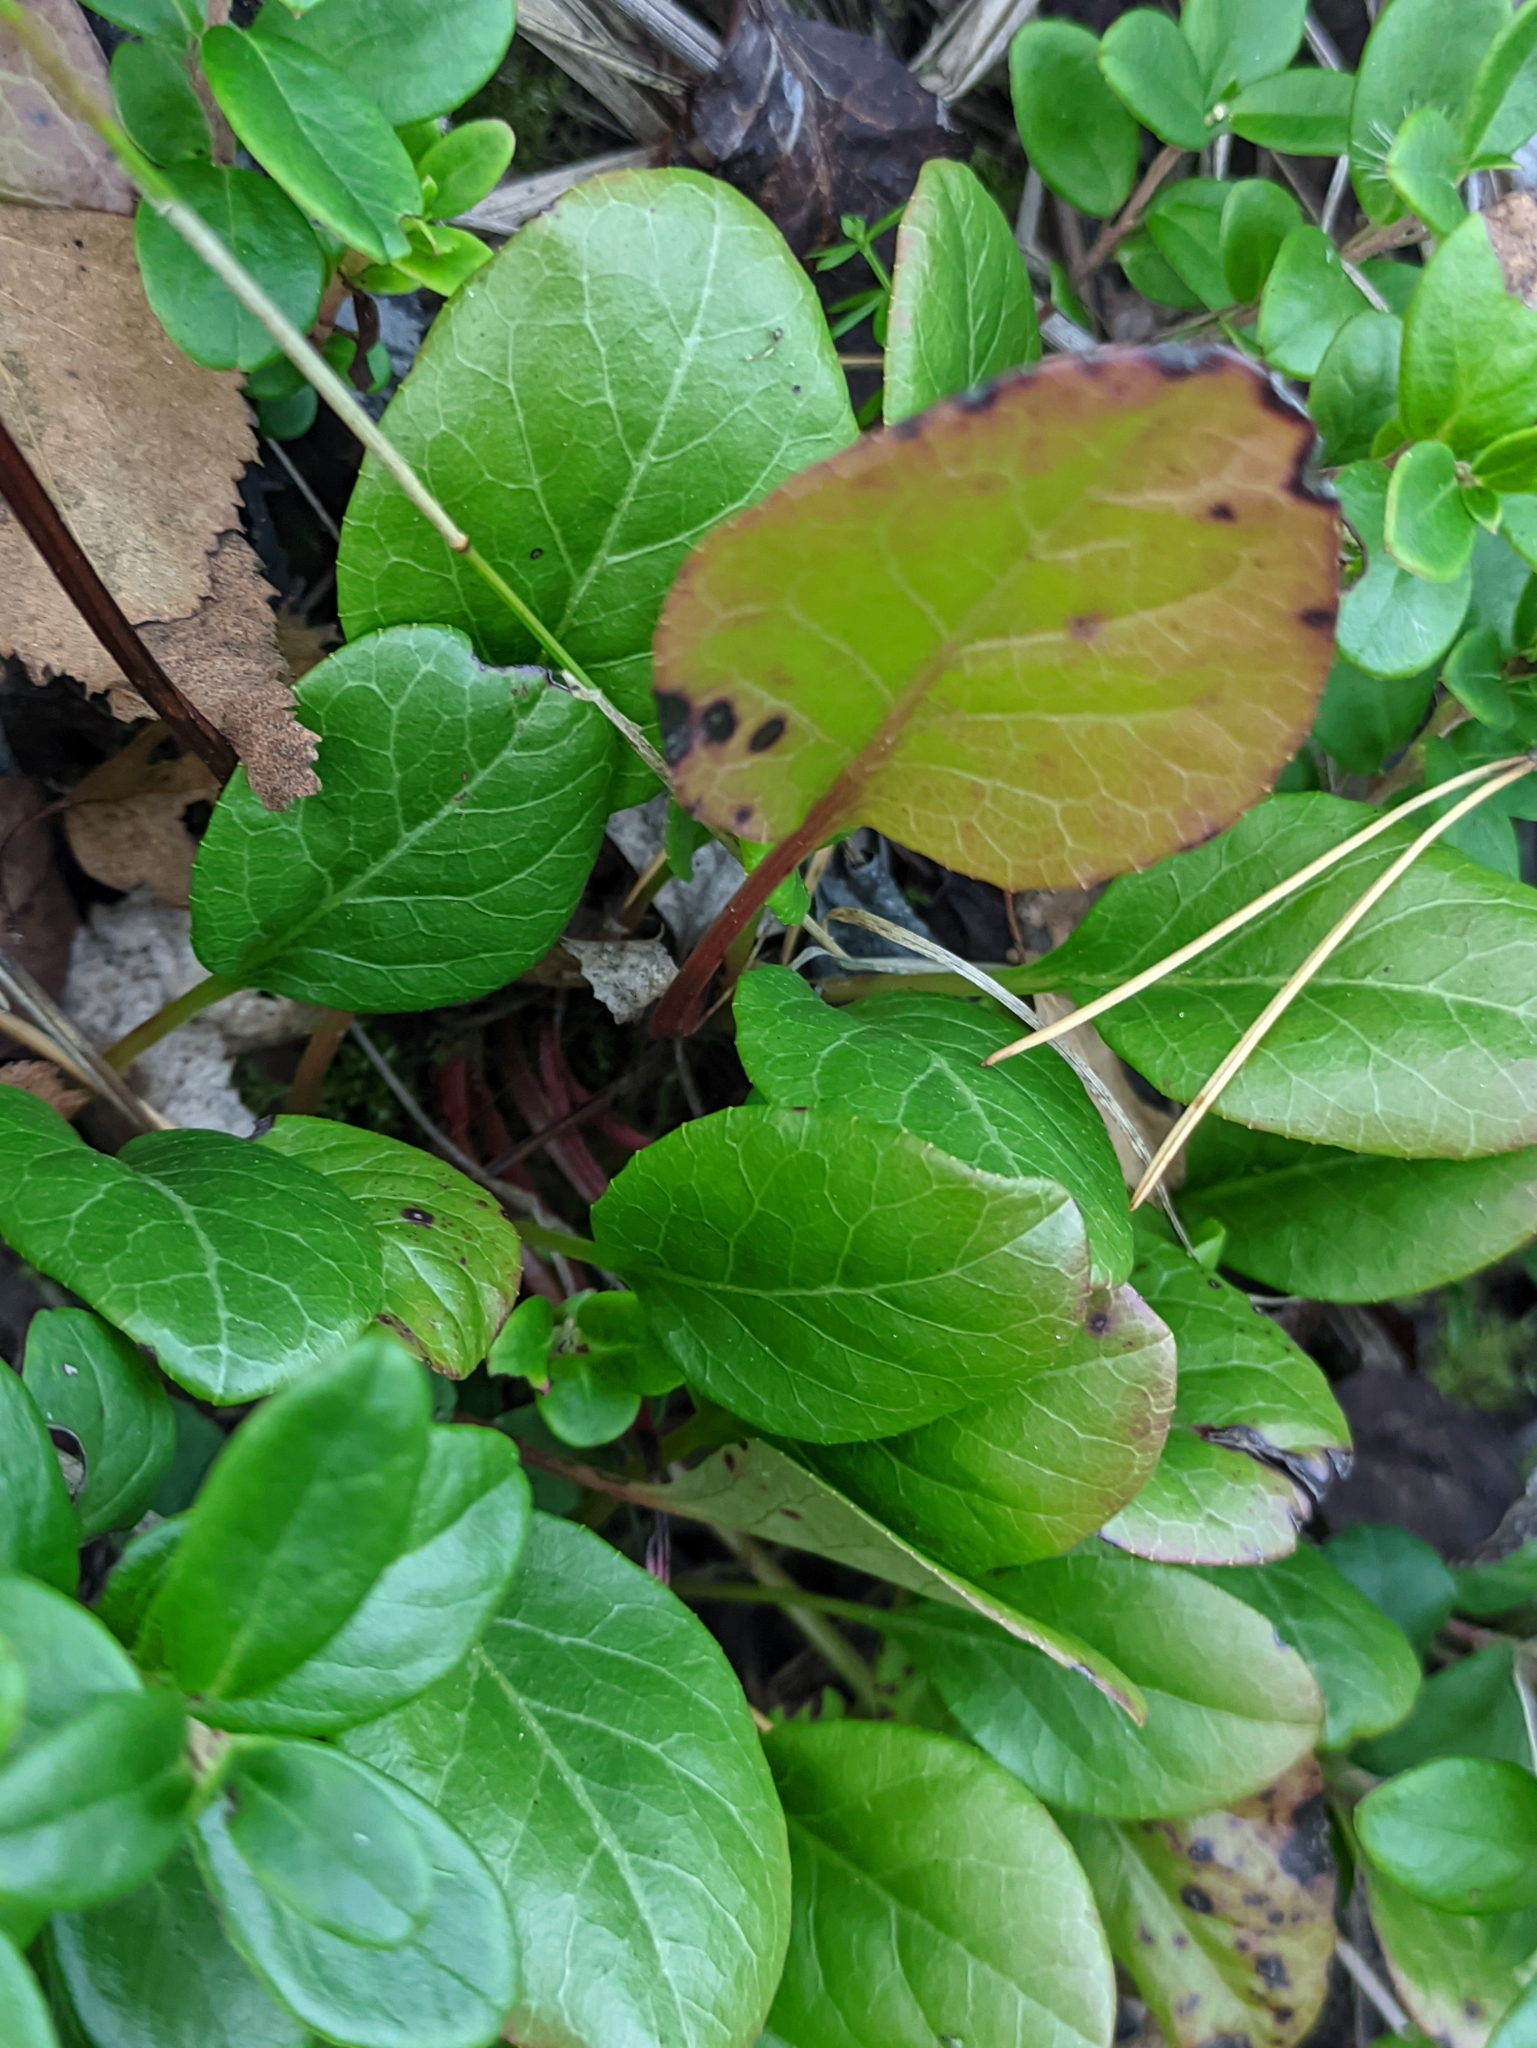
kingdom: Plantae
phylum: Tracheophyta
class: Magnoliopsida
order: Ericales
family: Ericaceae
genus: Pyrola
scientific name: Pyrola rotundifolia
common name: Round-leaved wintergreen
